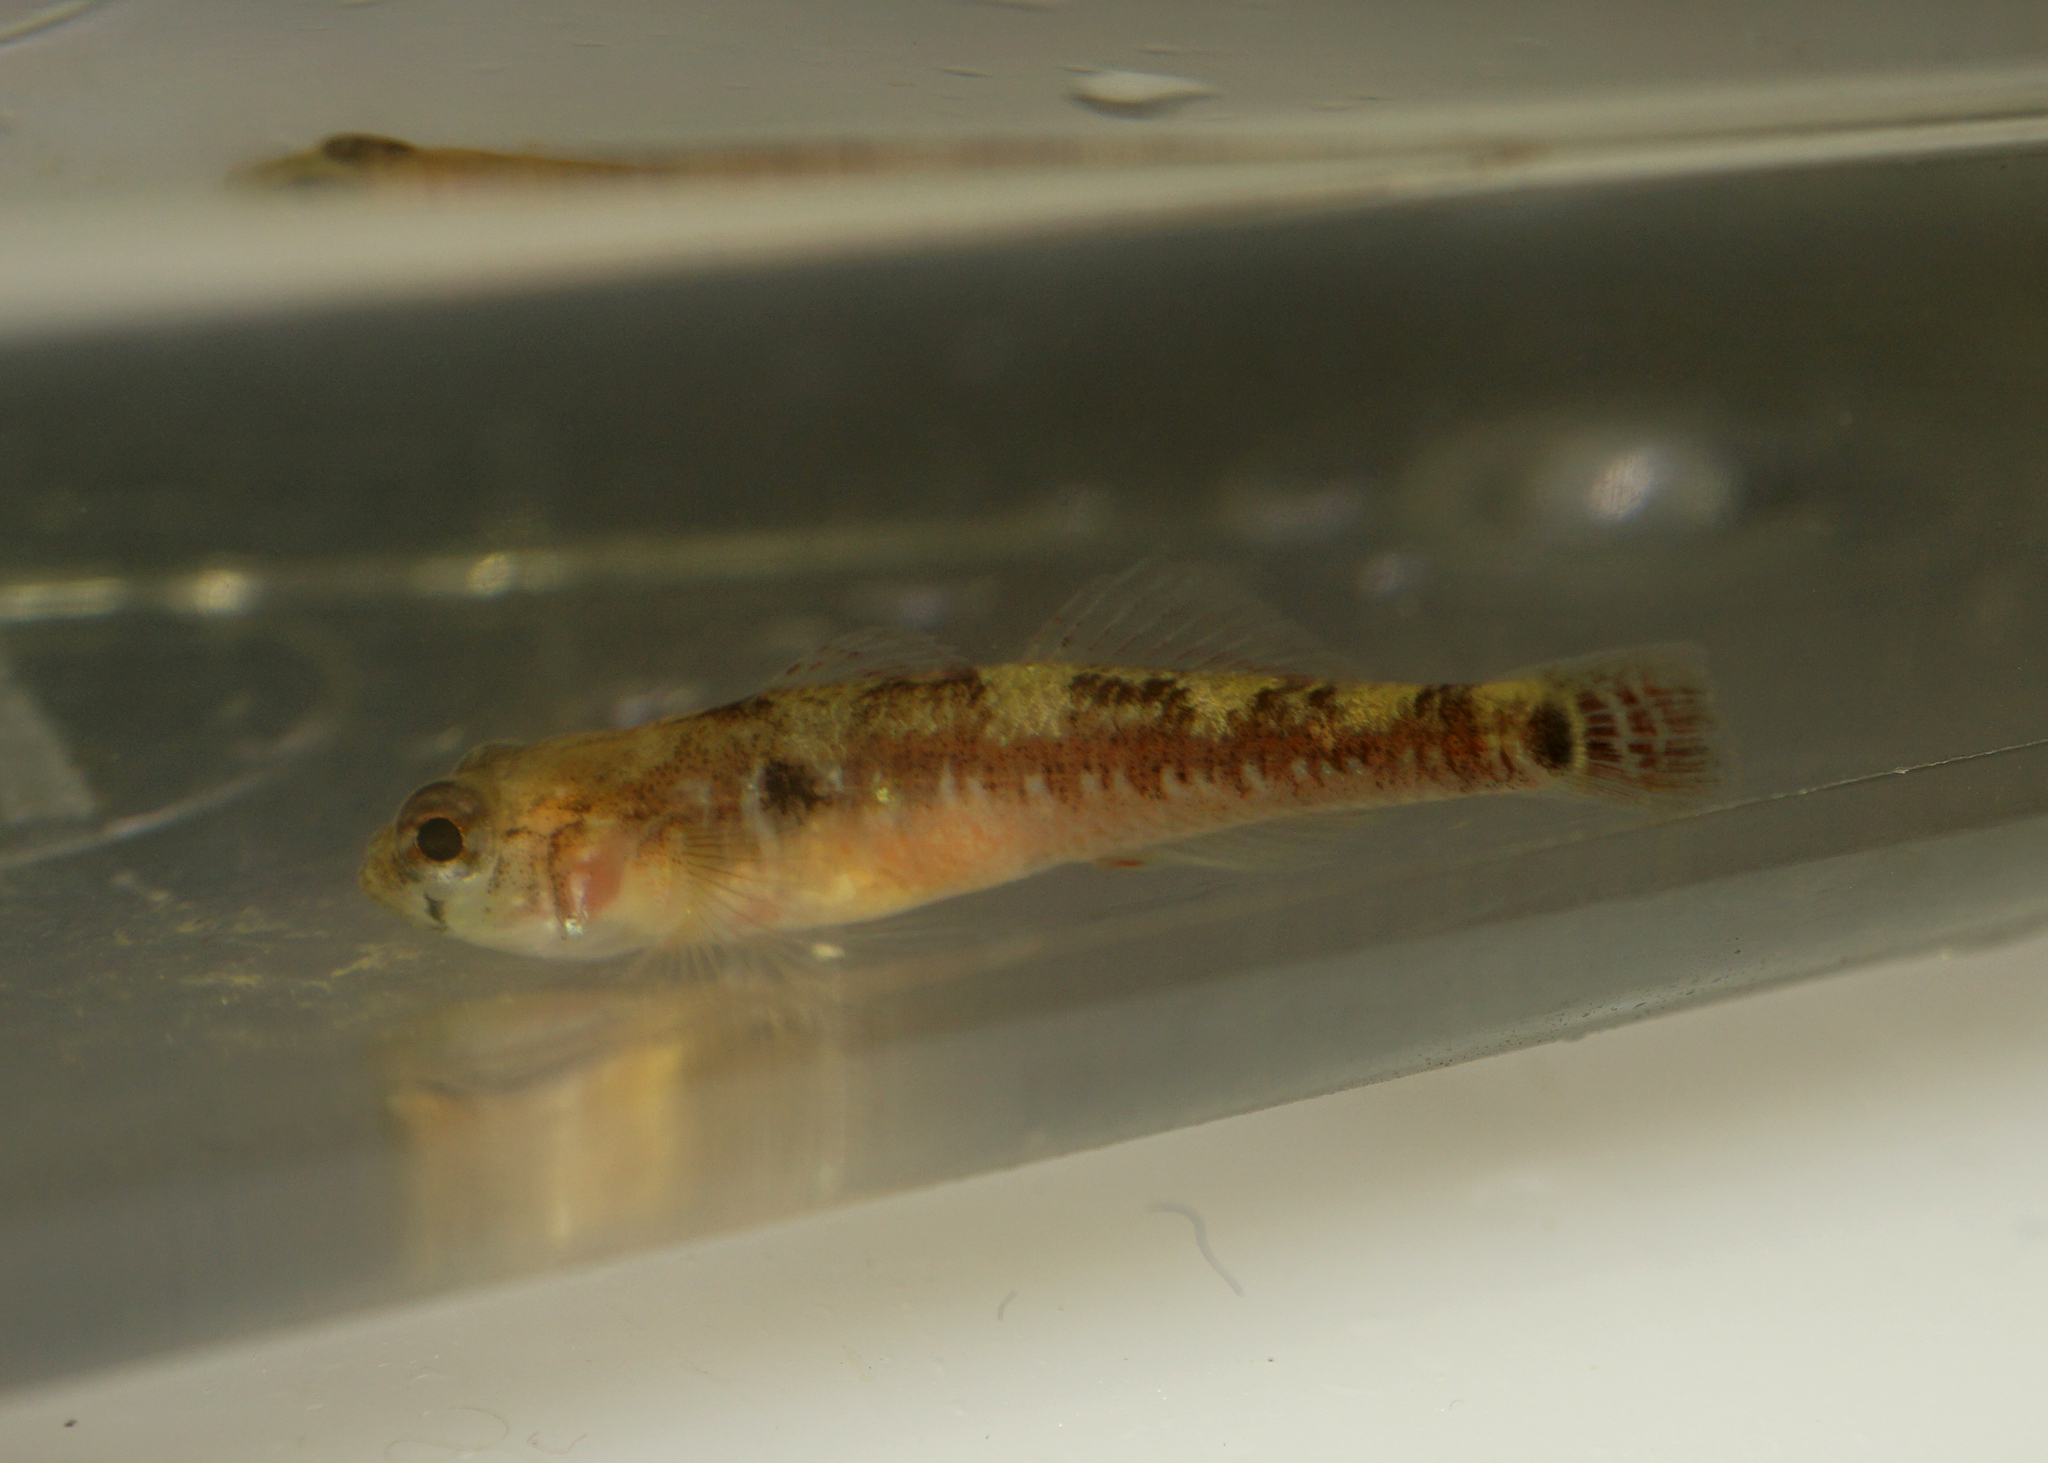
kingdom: Animalia
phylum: Chordata
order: Perciformes
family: Gobiidae
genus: Gobiusculus
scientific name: Gobiusculus flavescens
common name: Two-spotted goby
